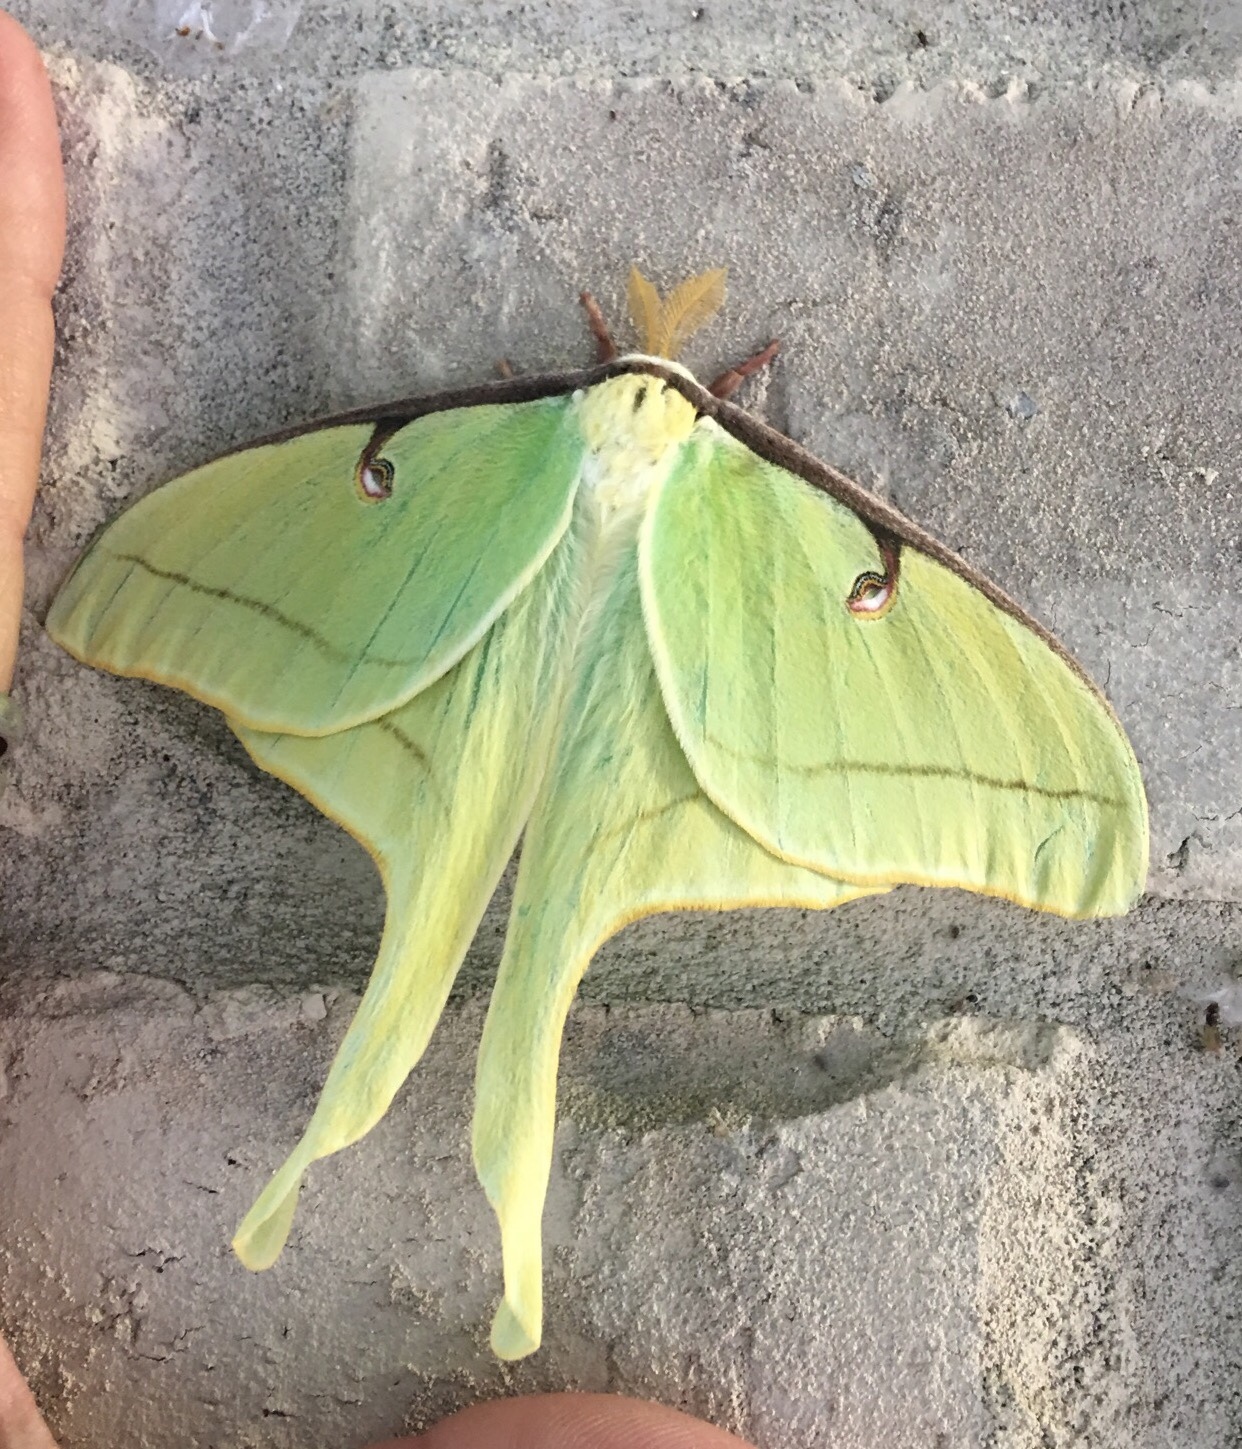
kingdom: Animalia
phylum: Arthropoda
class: Insecta
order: Lepidoptera
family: Saturniidae
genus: Actias
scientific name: Actias luna
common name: Luna moth
